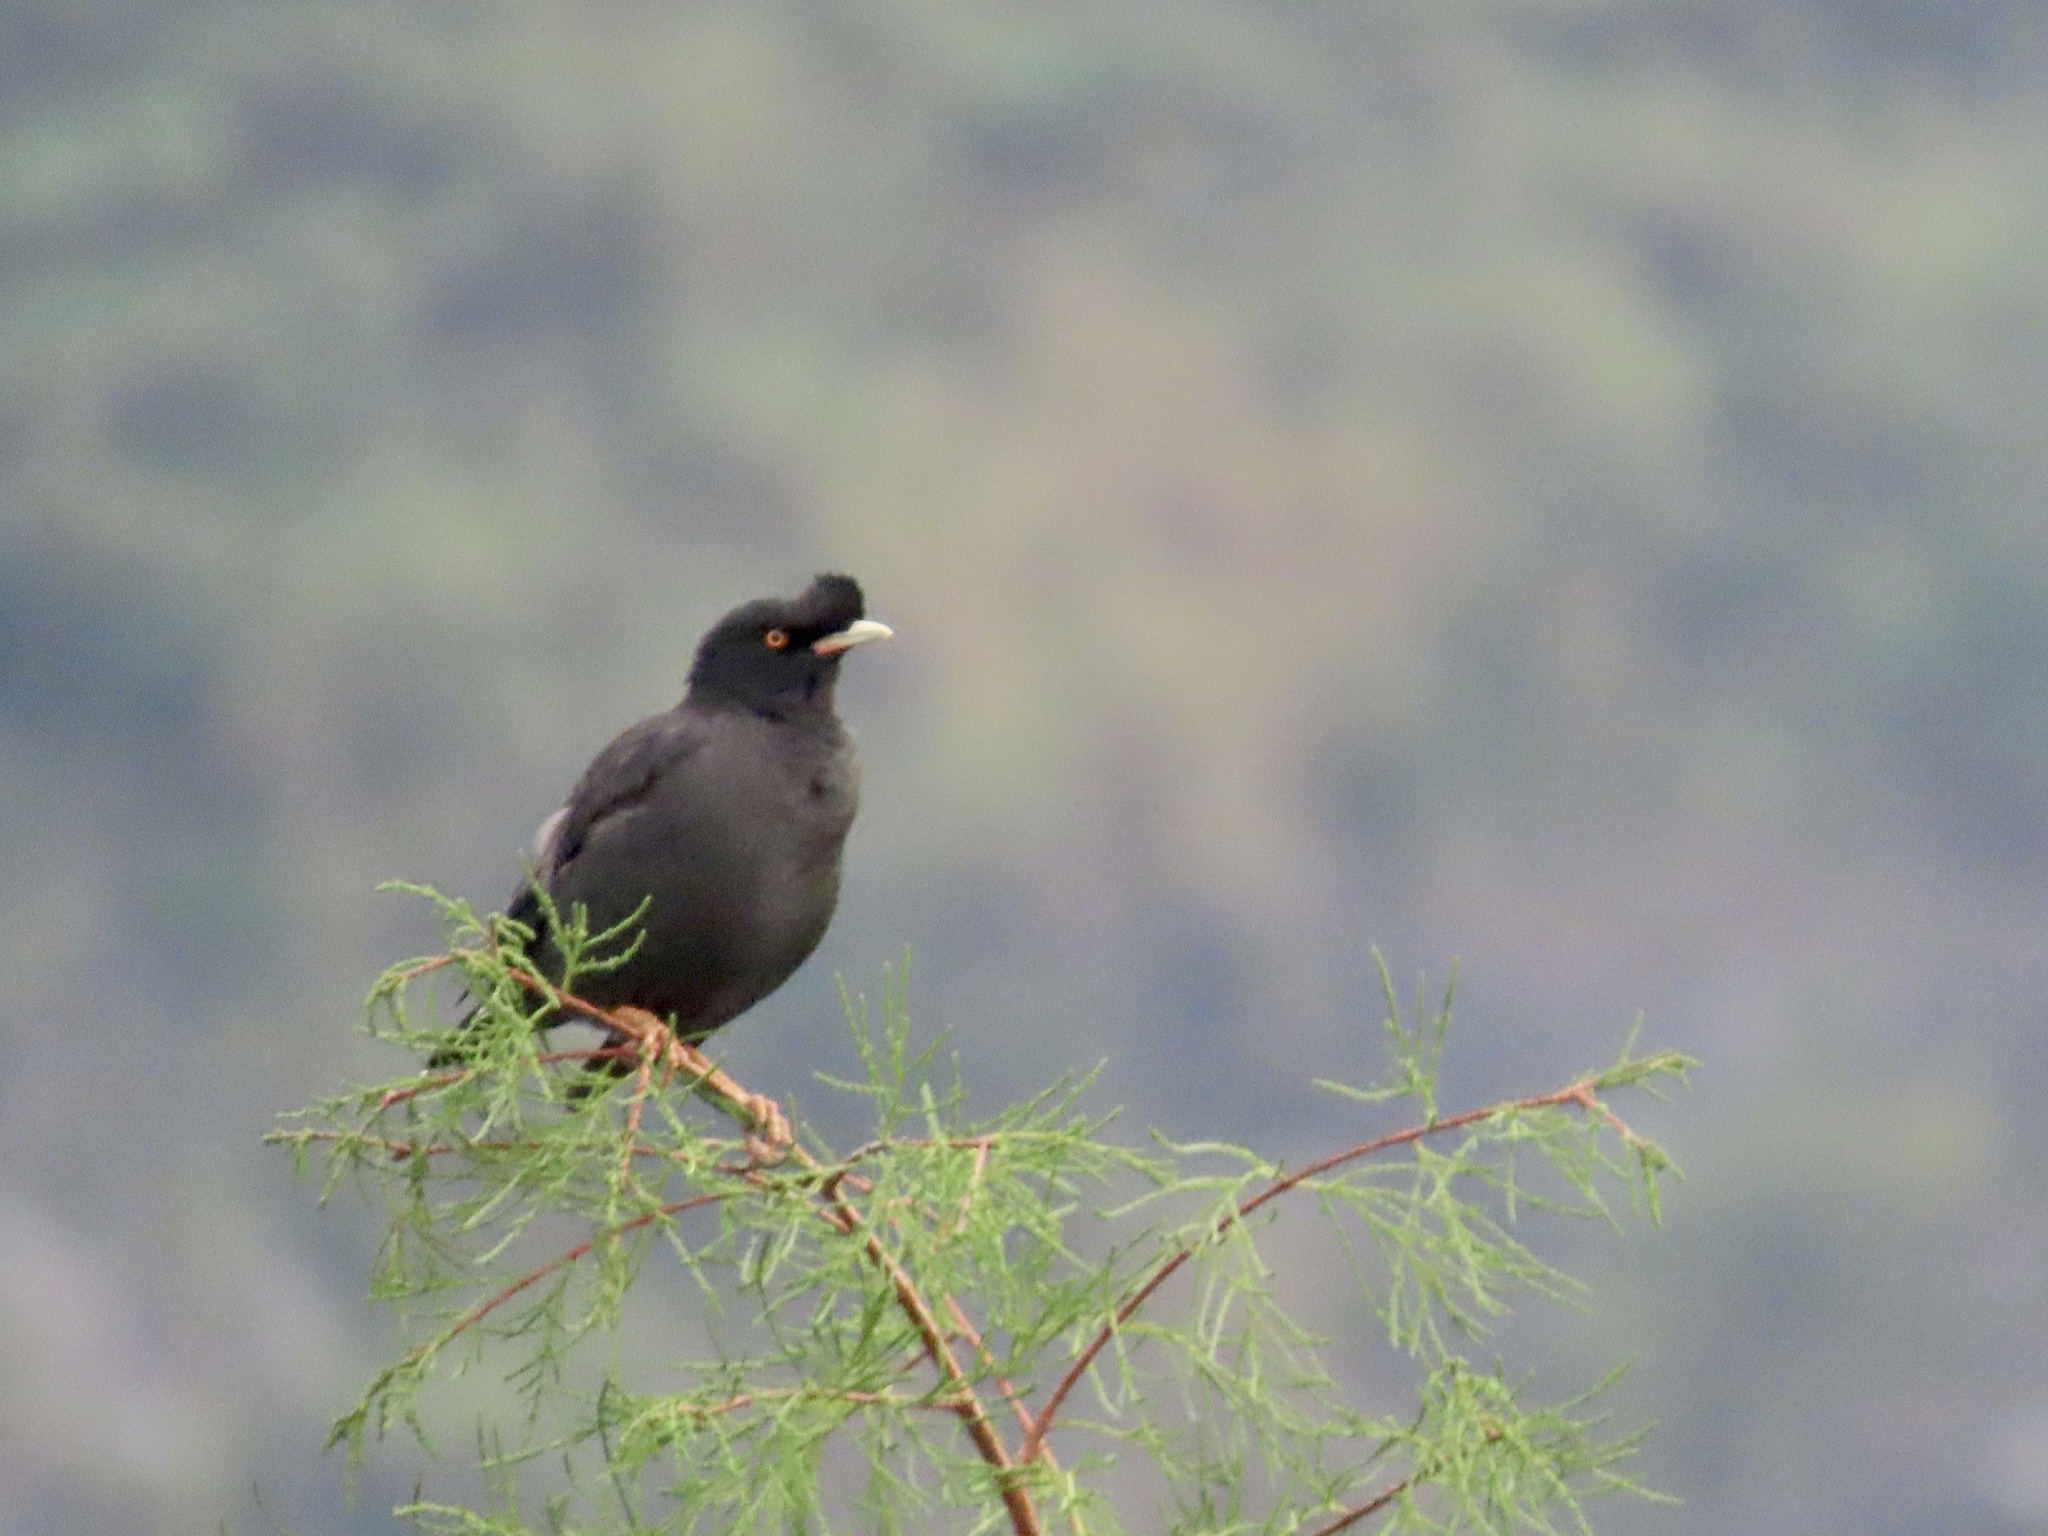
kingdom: Animalia
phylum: Chordata
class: Aves
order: Passeriformes
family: Sturnidae
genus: Acridotheres
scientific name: Acridotheres cristatellus
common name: Crested myna
